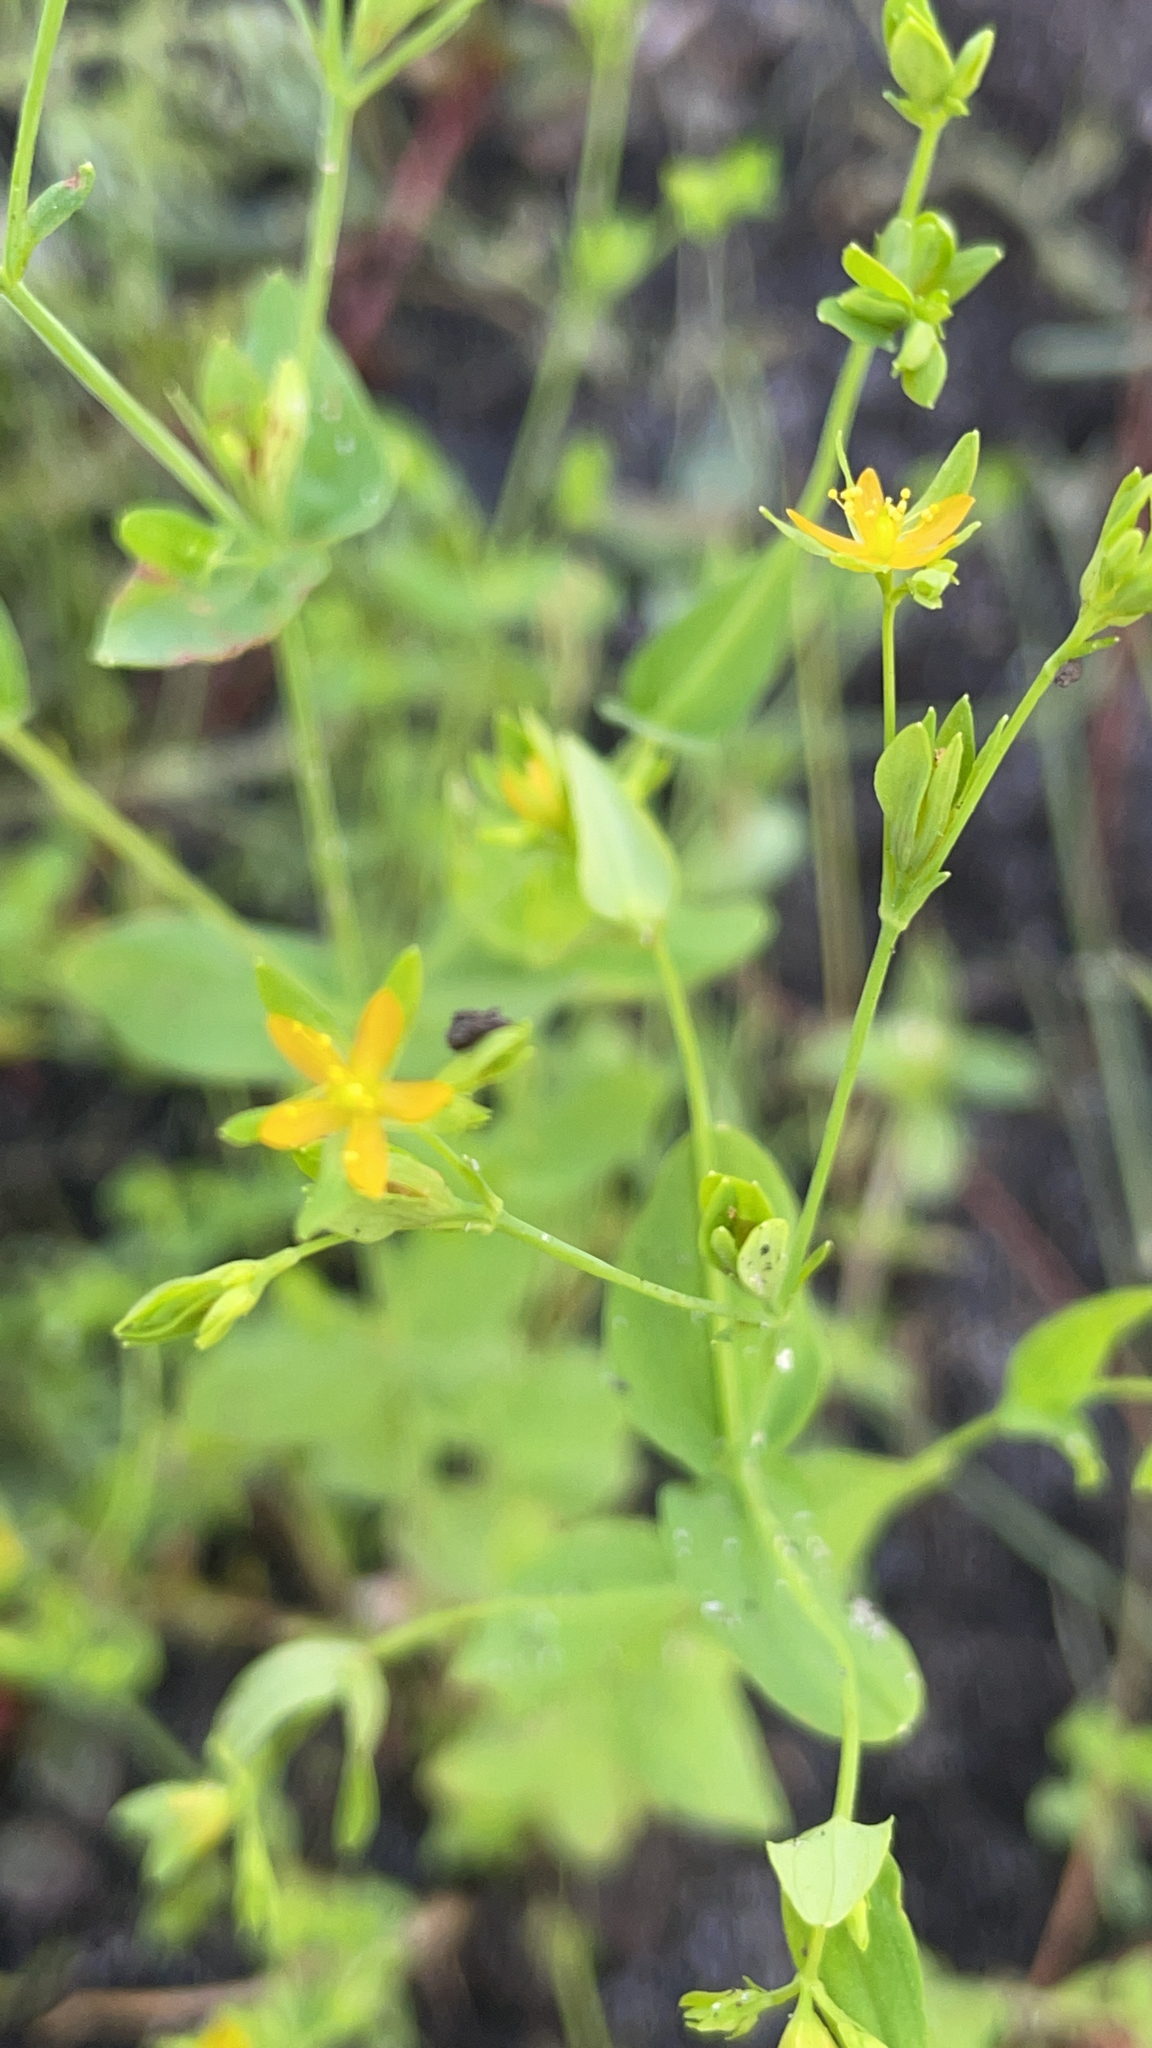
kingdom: Plantae
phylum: Tracheophyta
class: Magnoliopsida
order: Malpighiales
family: Hypericaceae
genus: Hypericum
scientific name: Hypericum mutilum
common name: Dwarf st. john's-wort
